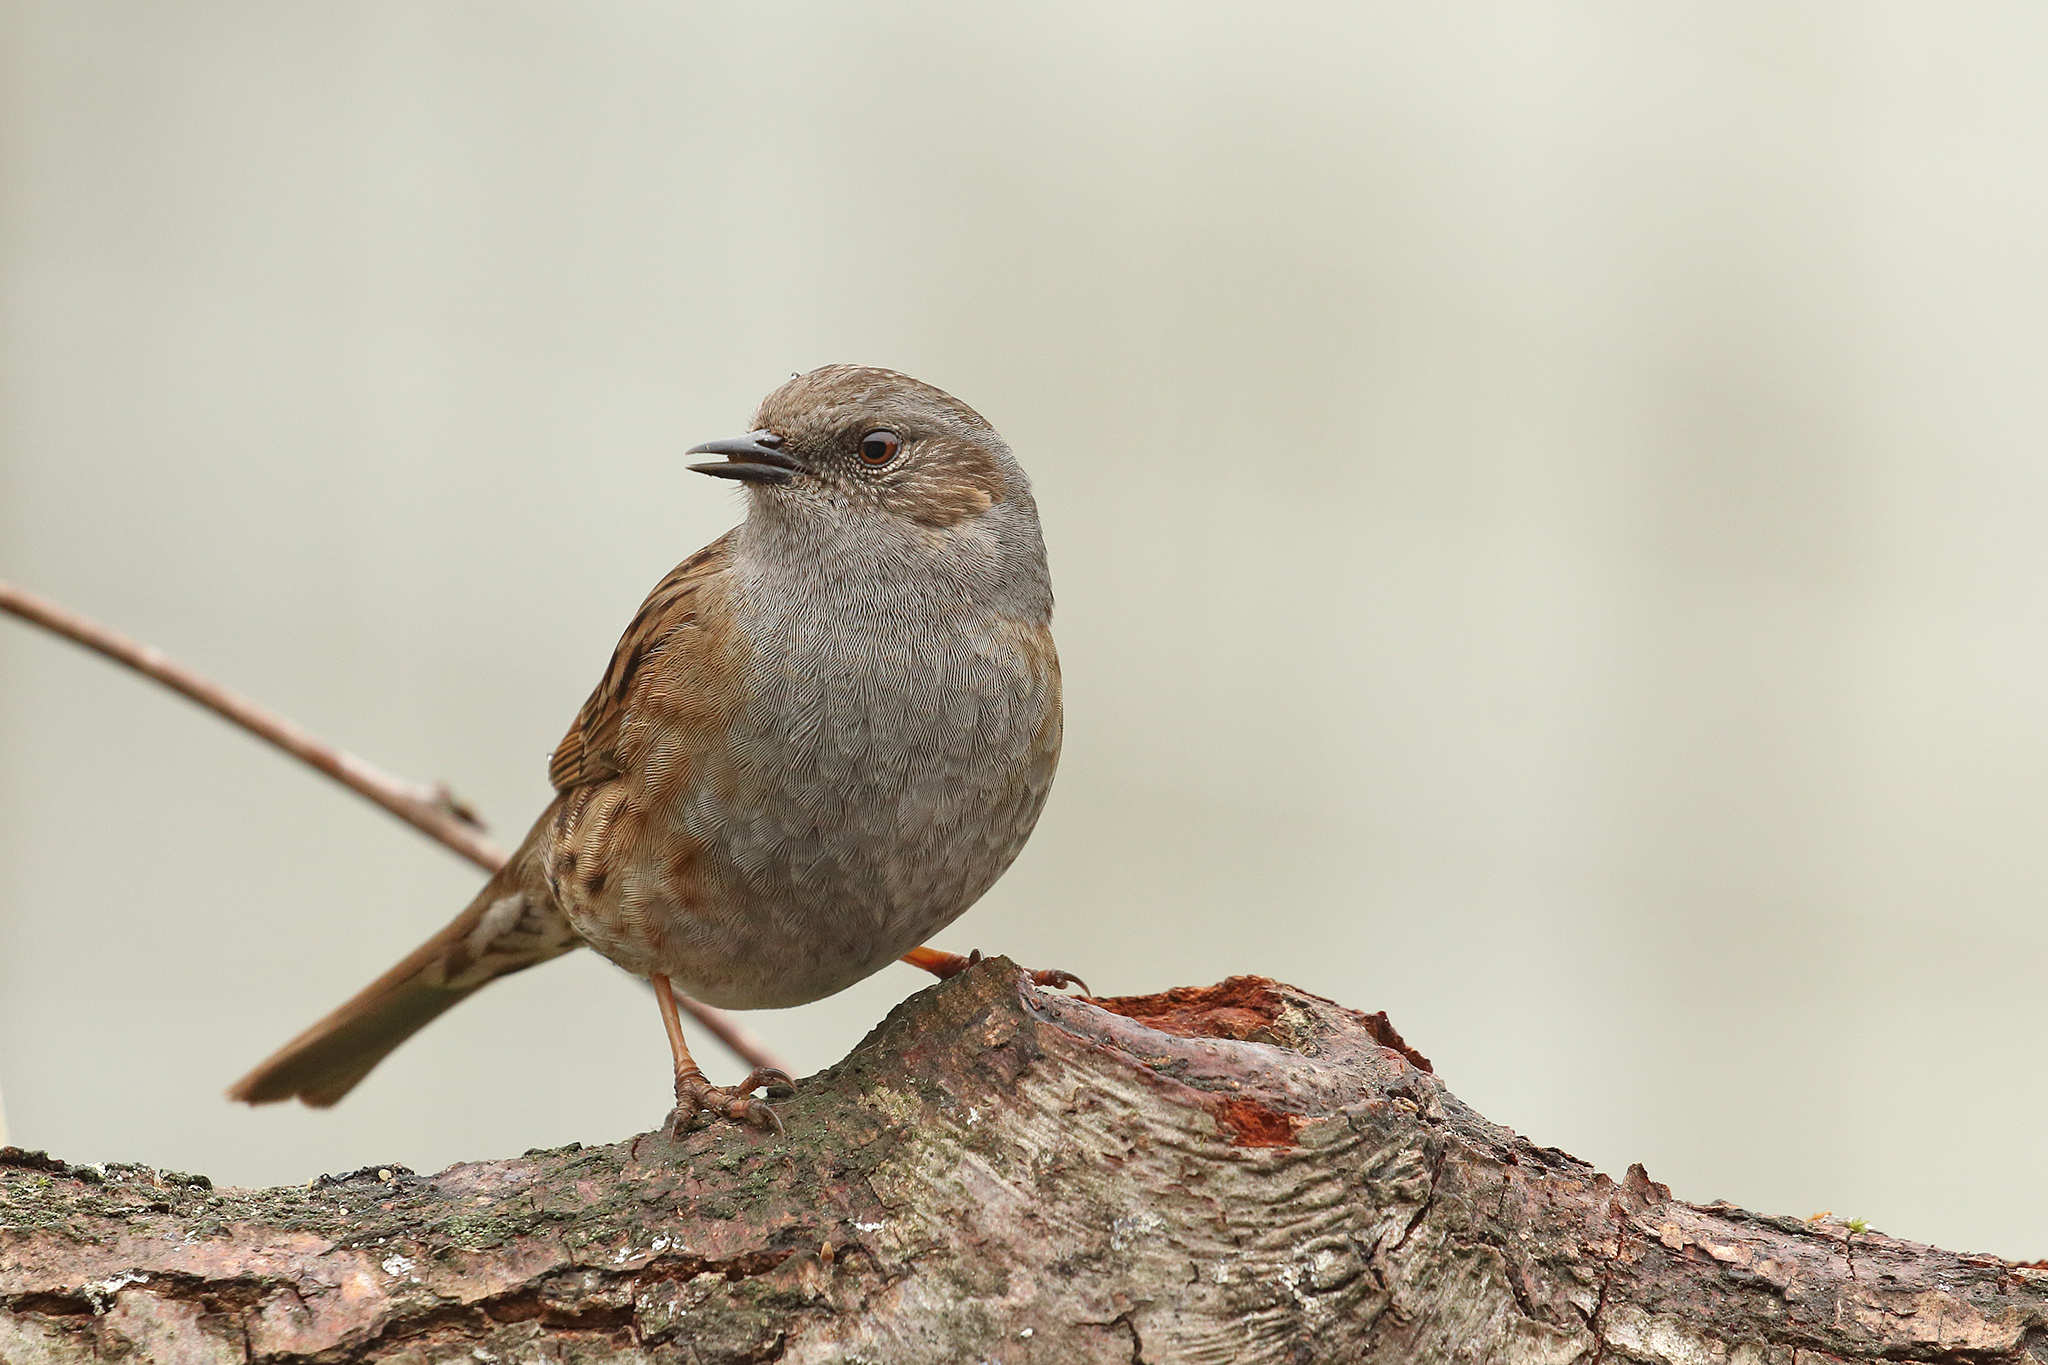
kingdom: Animalia
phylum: Chordata
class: Aves
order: Passeriformes
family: Prunellidae
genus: Prunella
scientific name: Prunella modularis
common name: Dunnock
